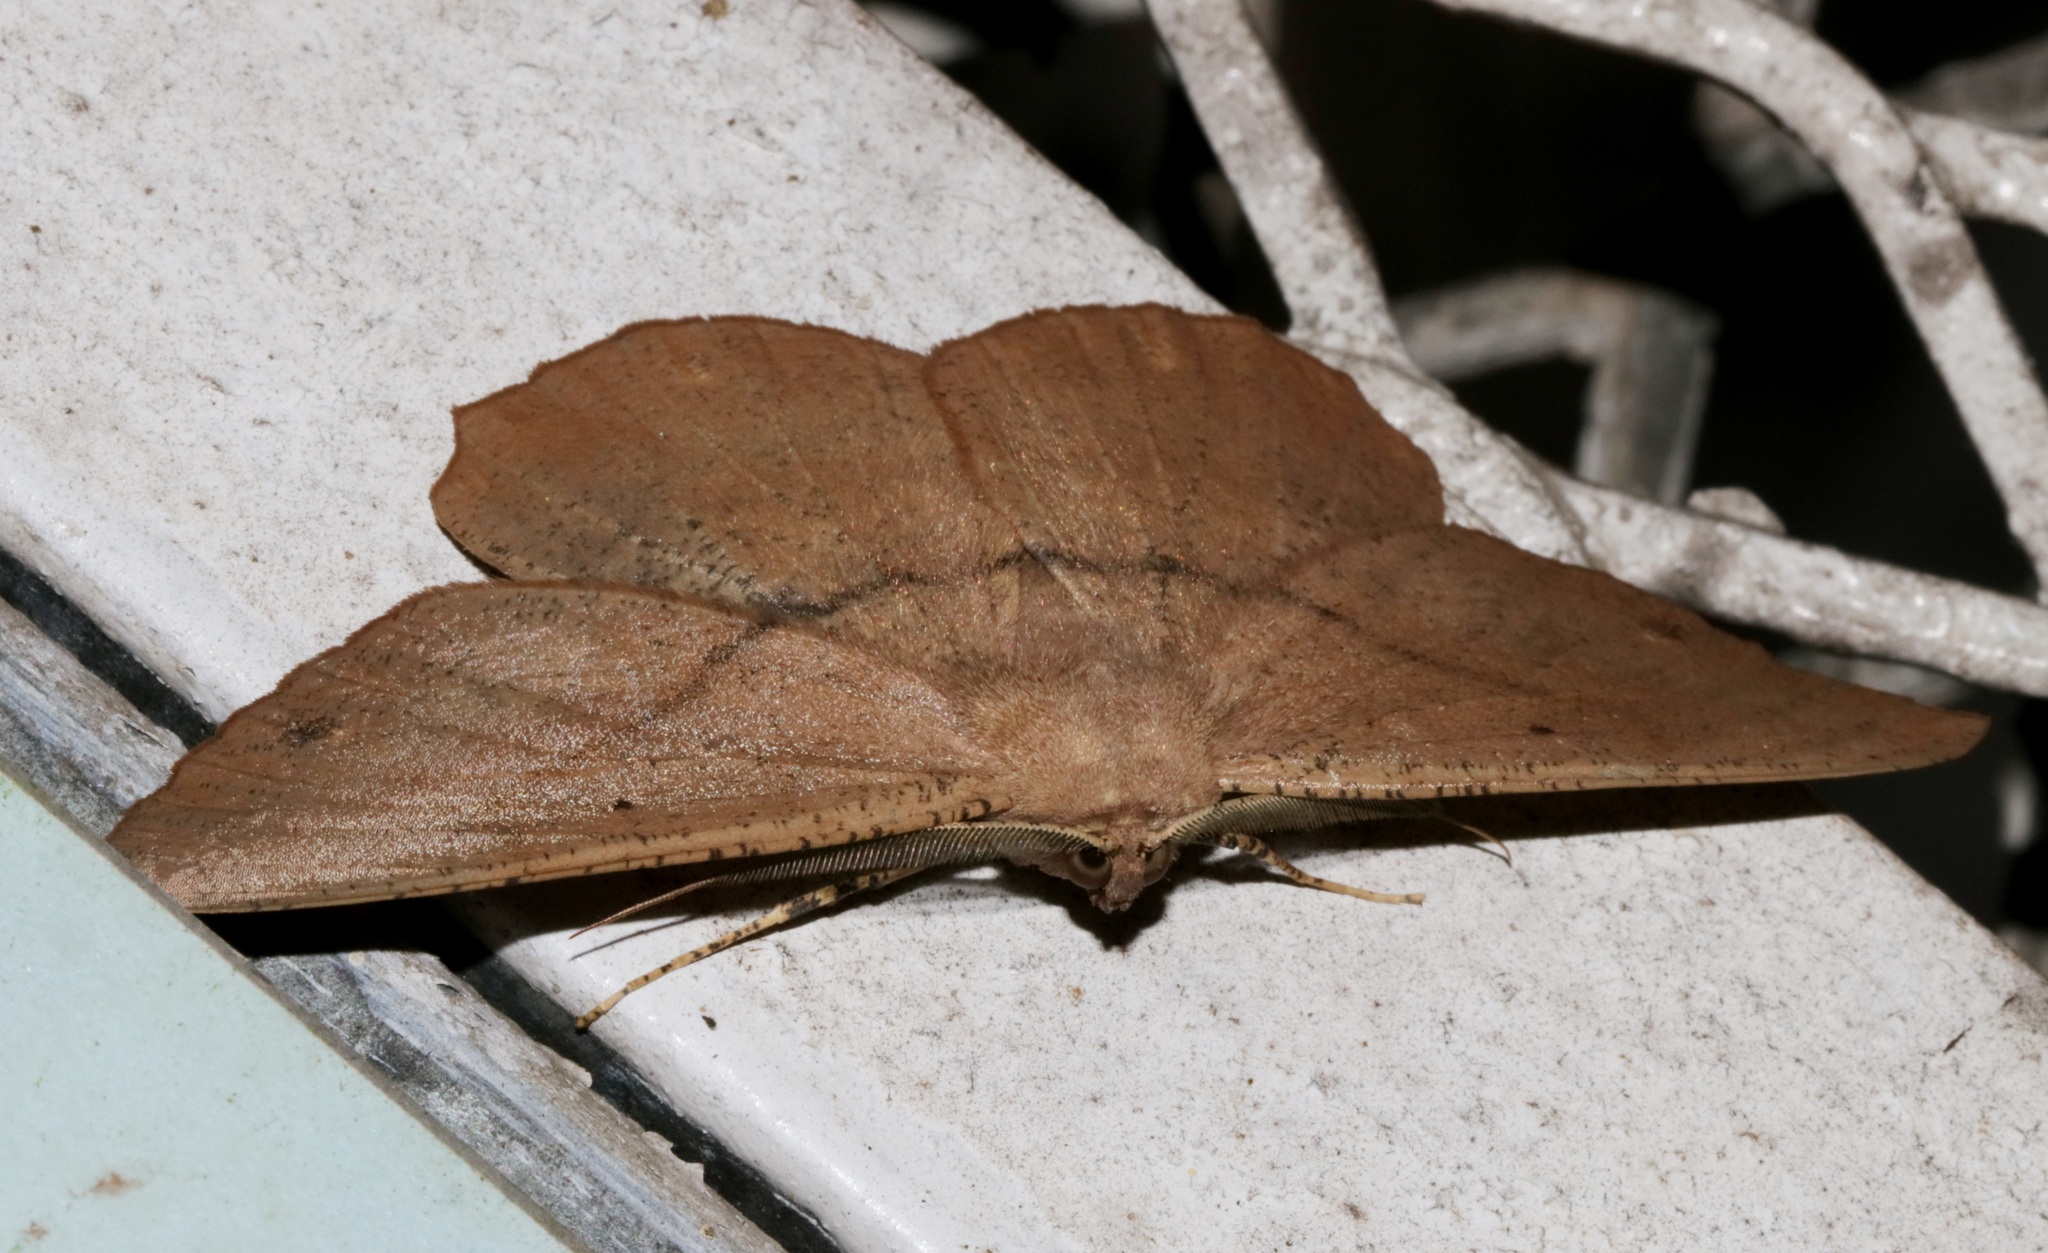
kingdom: Animalia
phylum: Arthropoda
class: Insecta
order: Lepidoptera
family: Geometridae
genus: Chorodna
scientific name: Chorodna ochreimacula
